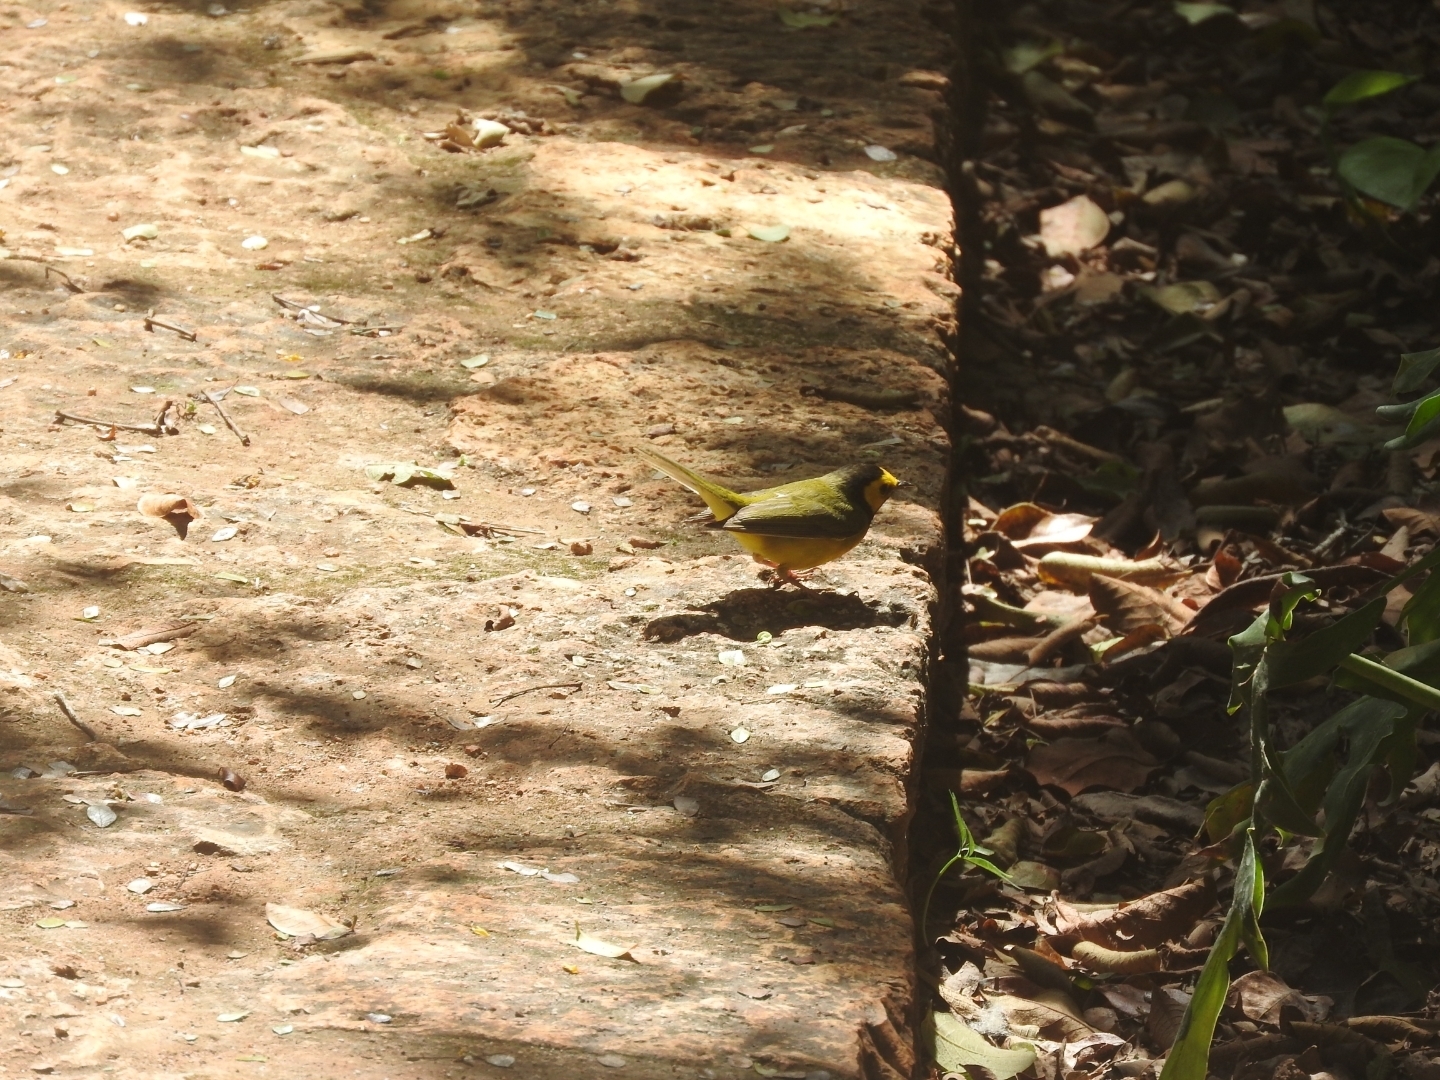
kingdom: Animalia
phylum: Chordata
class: Aves
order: Passeriformes
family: Parulidae
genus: Setophaga
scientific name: Setophaga citrina
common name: Hooded warbler
